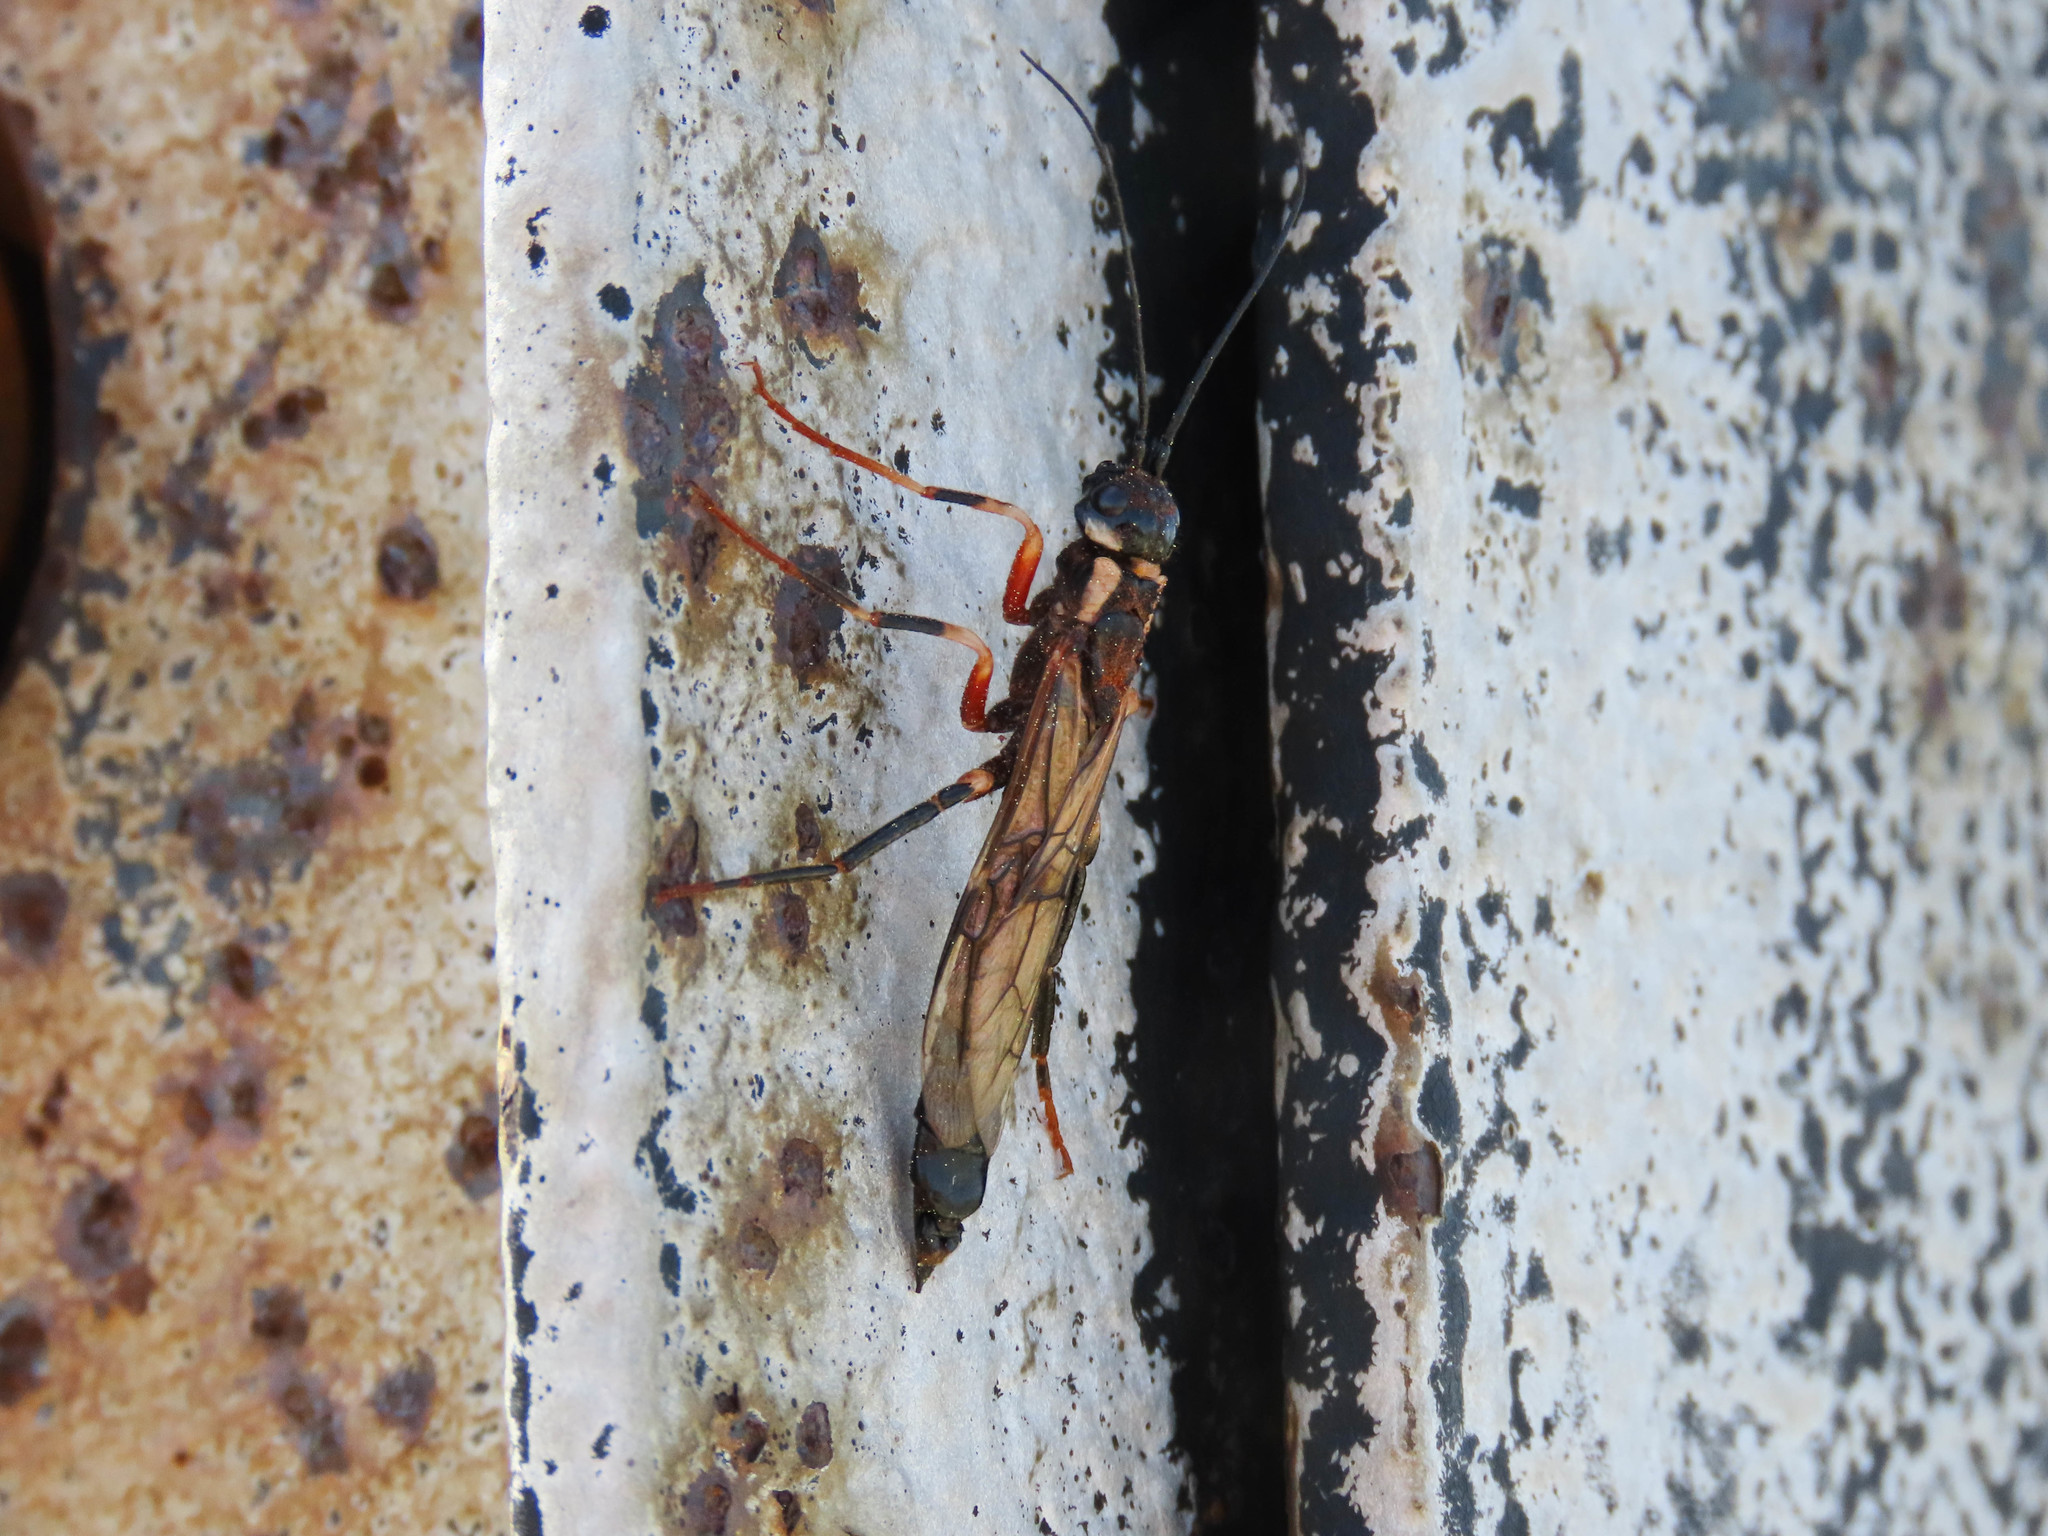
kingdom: Animalia
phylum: Arthropoda
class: Insecta
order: Hymenoptera
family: Siricidae
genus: Xeris
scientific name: Xeris spectrum
